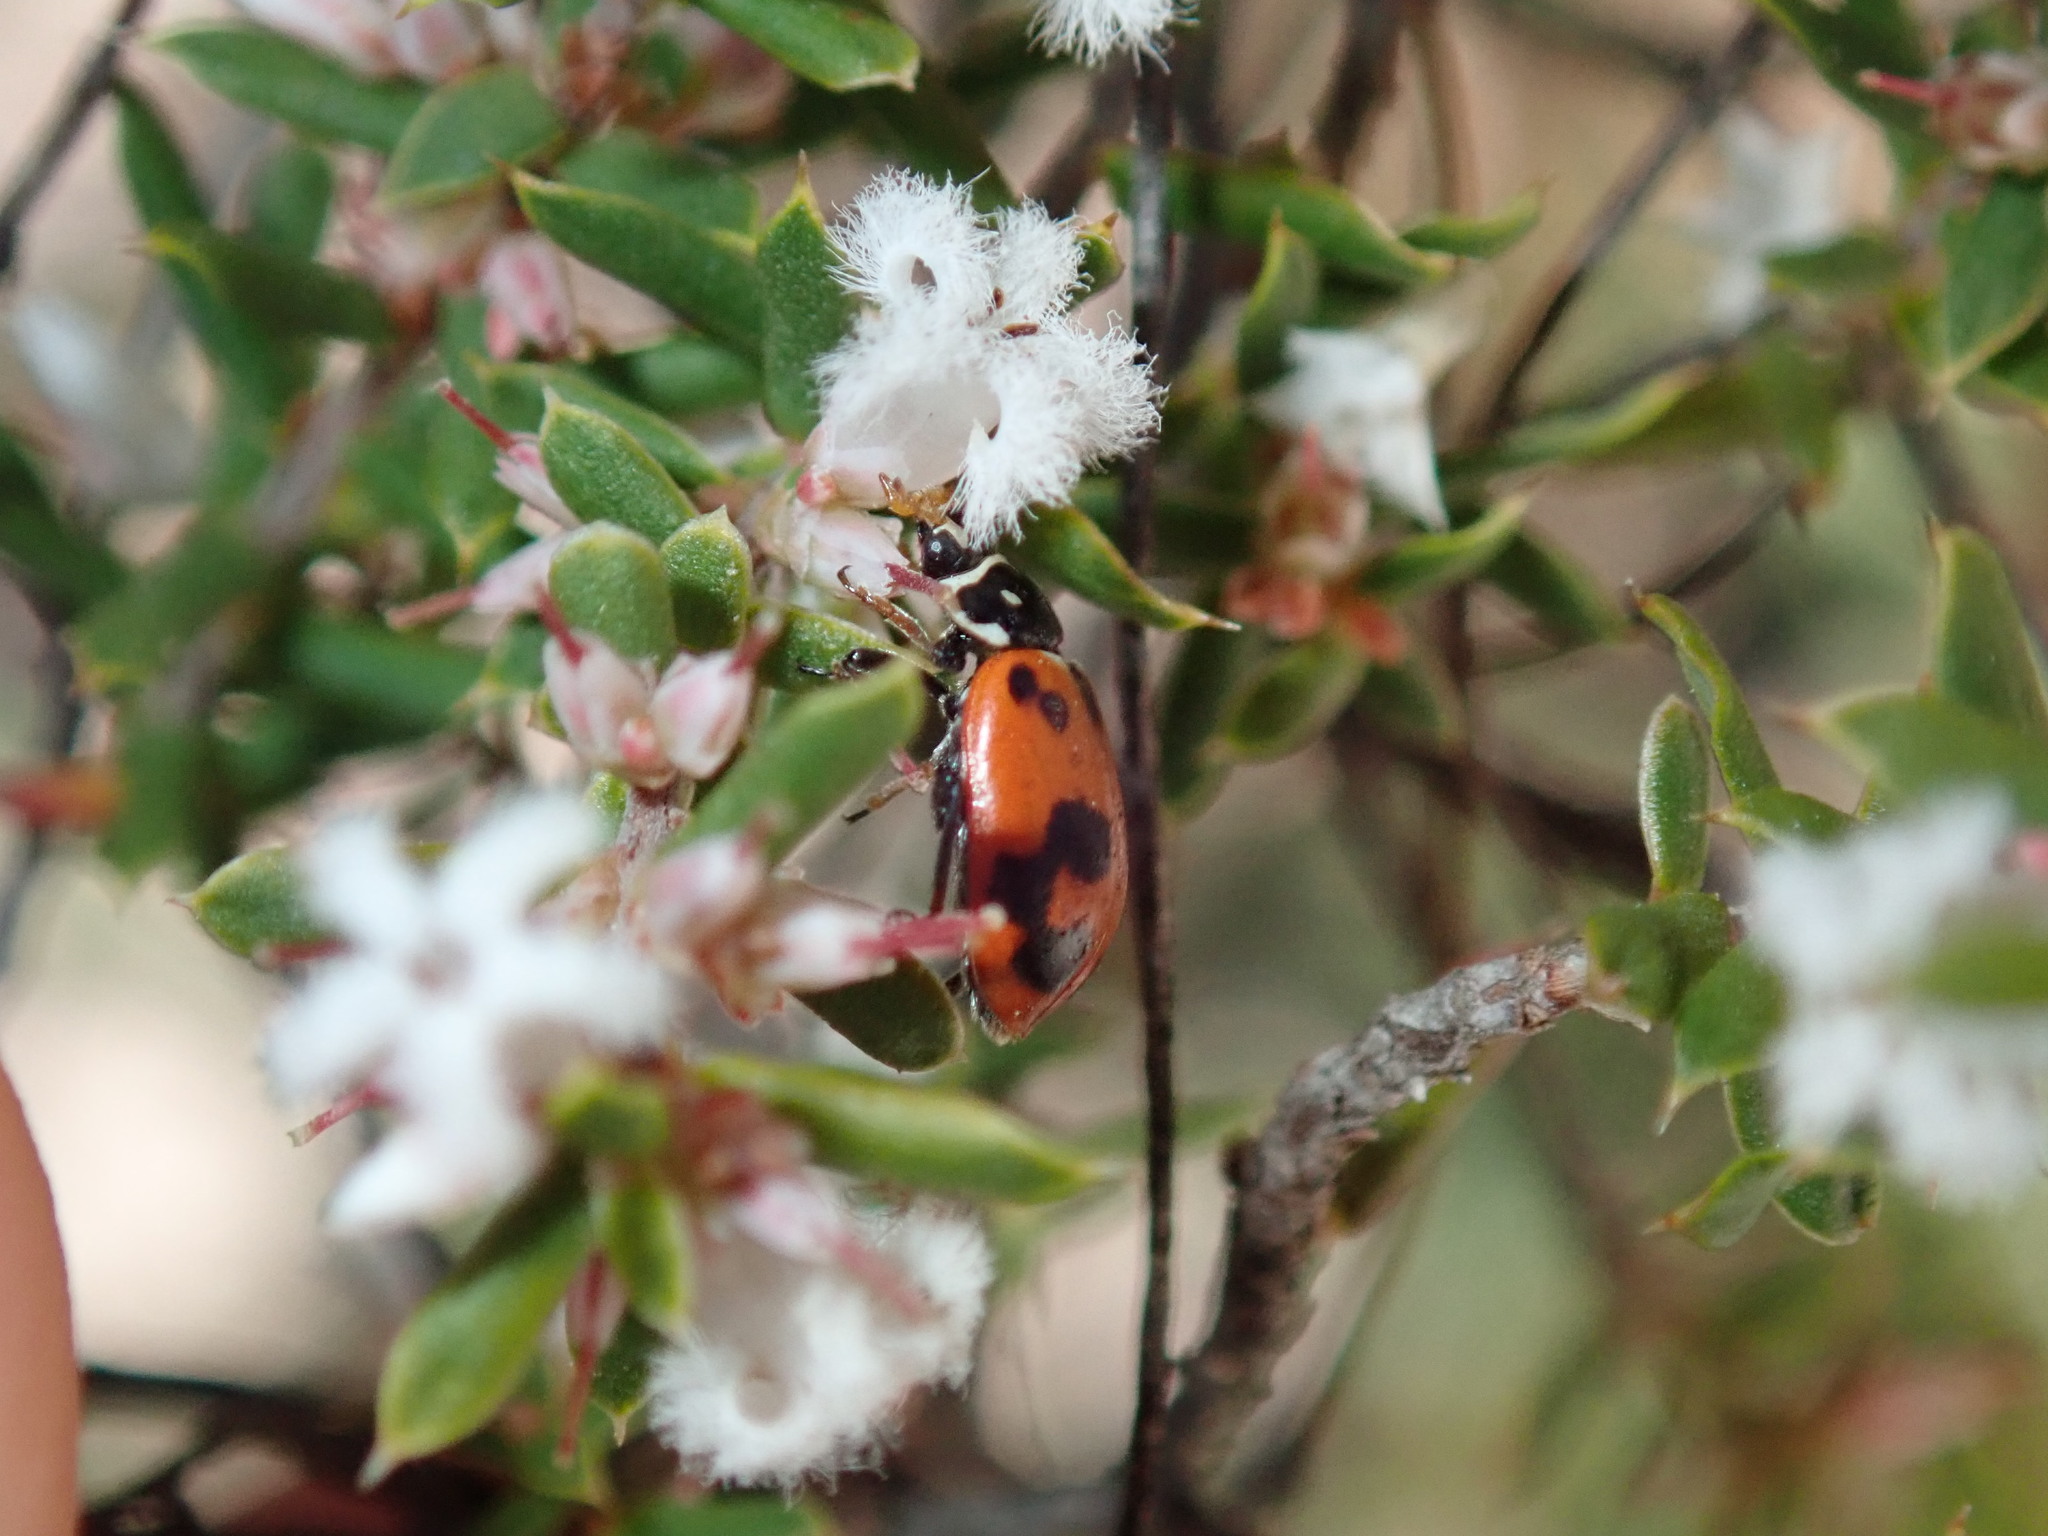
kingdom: Animalia
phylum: Arthropoda
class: Insecta
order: Coleoptera
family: Coccinellidae
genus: Hippodamia
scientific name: Hippodamia variegata
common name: Ladybird beetle
